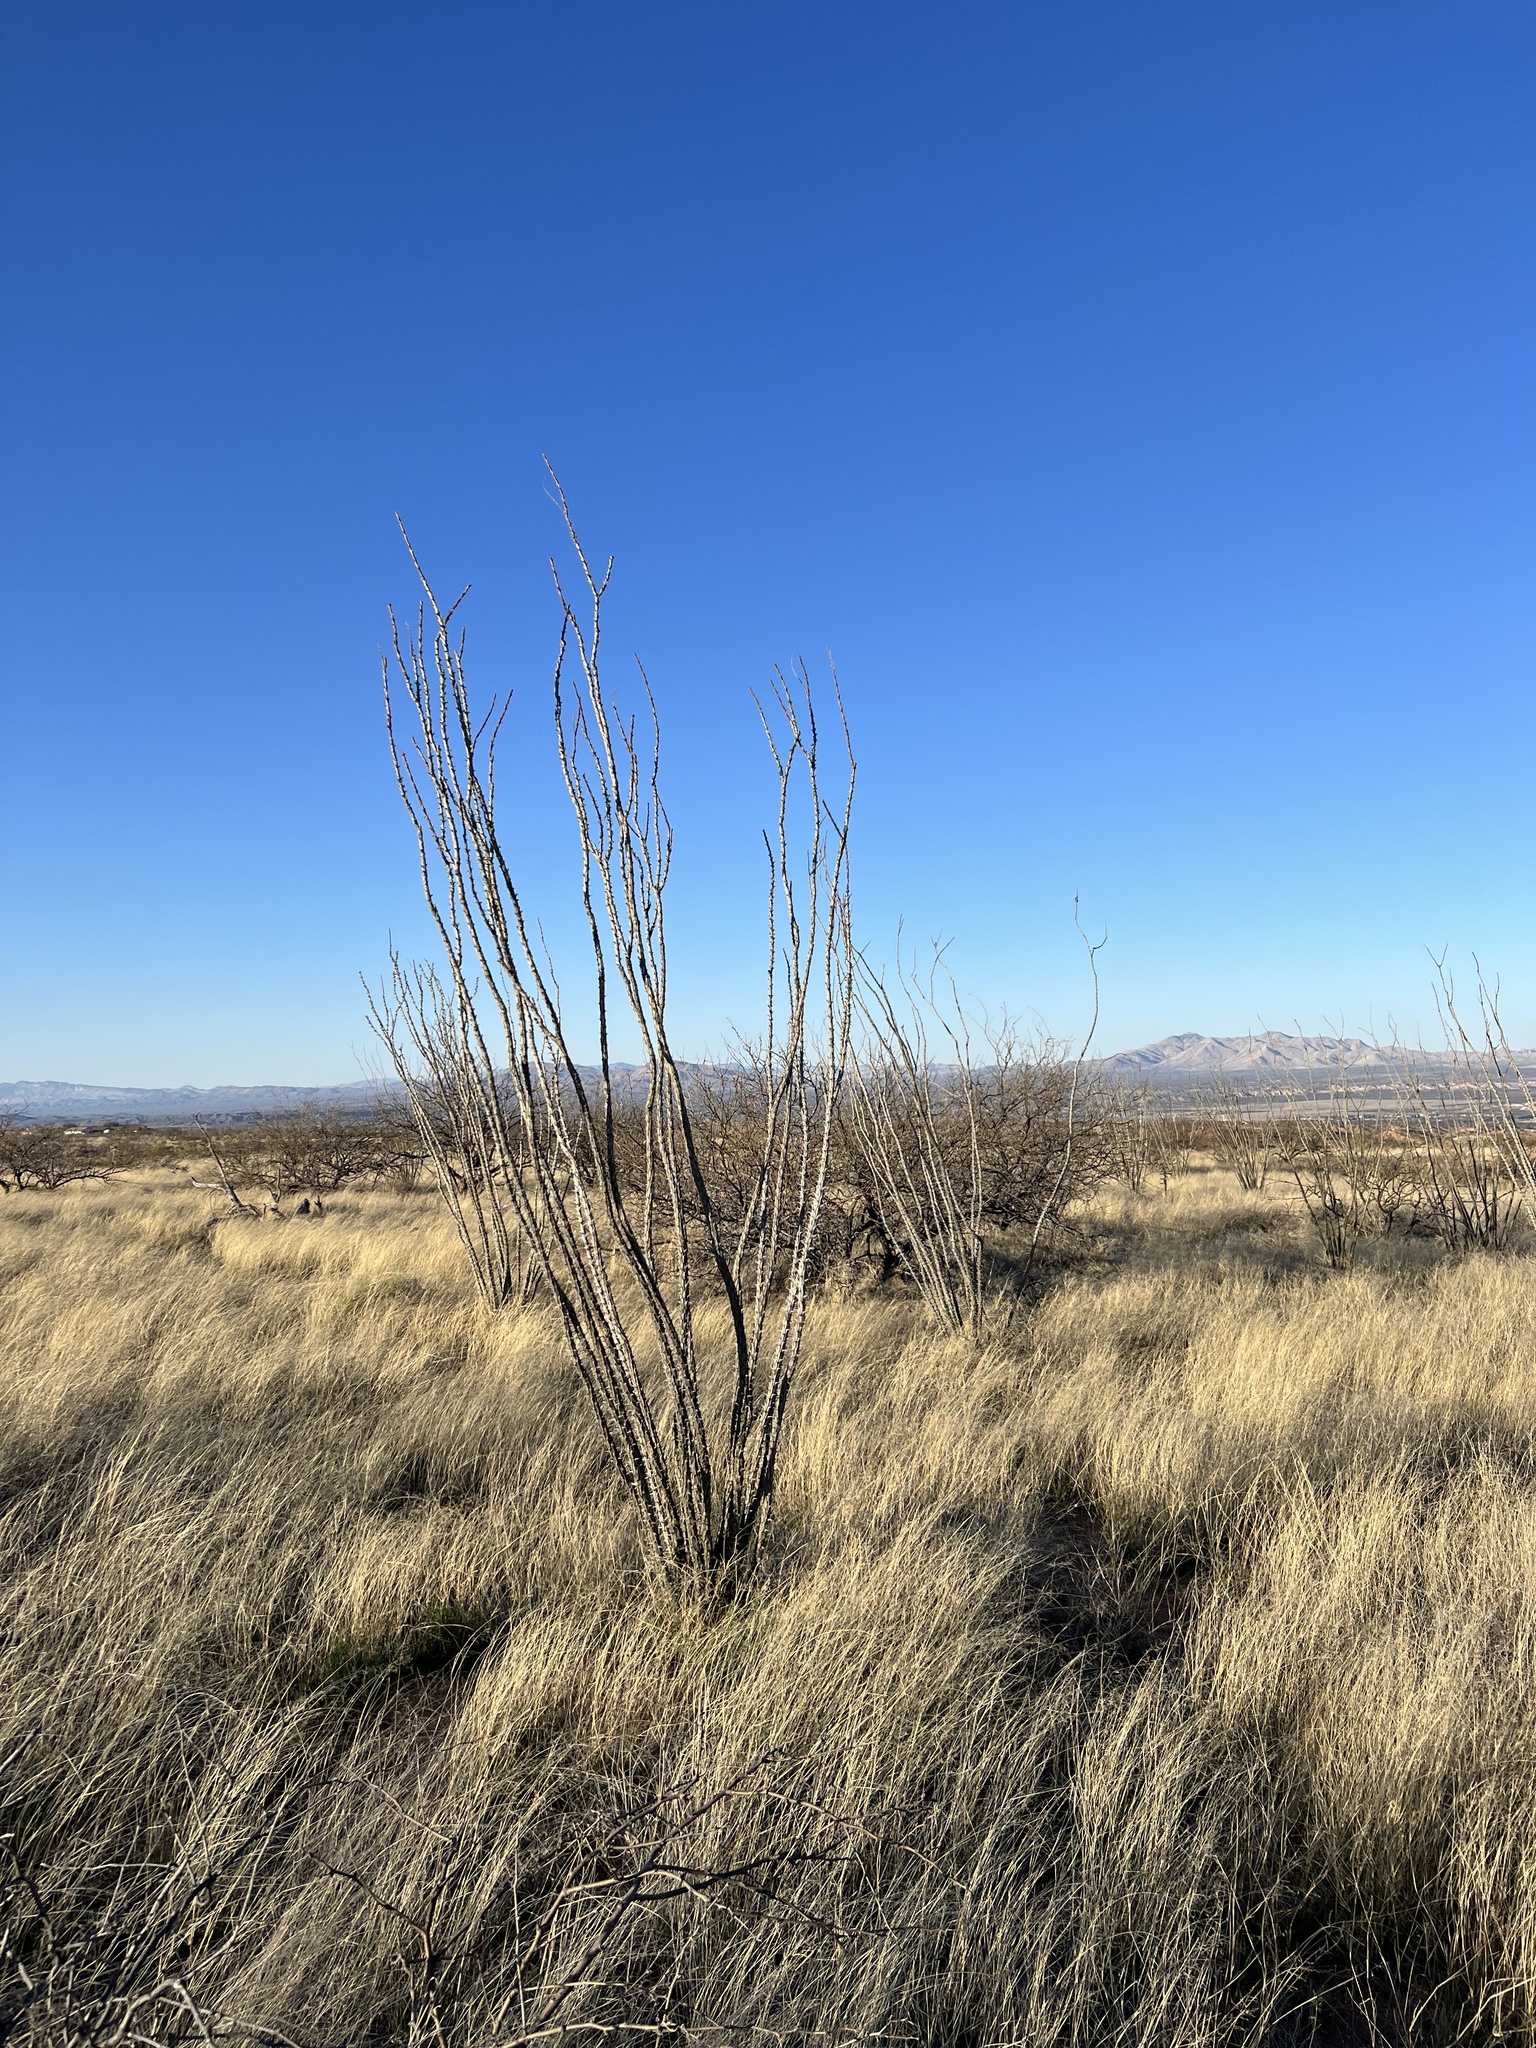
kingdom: Plantae
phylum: Tracheophyta
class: Magnoliopsida
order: Ericales
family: Fouquieriaceae
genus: Fouquieria
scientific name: Fouquieria splendens
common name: Vine-cactus
